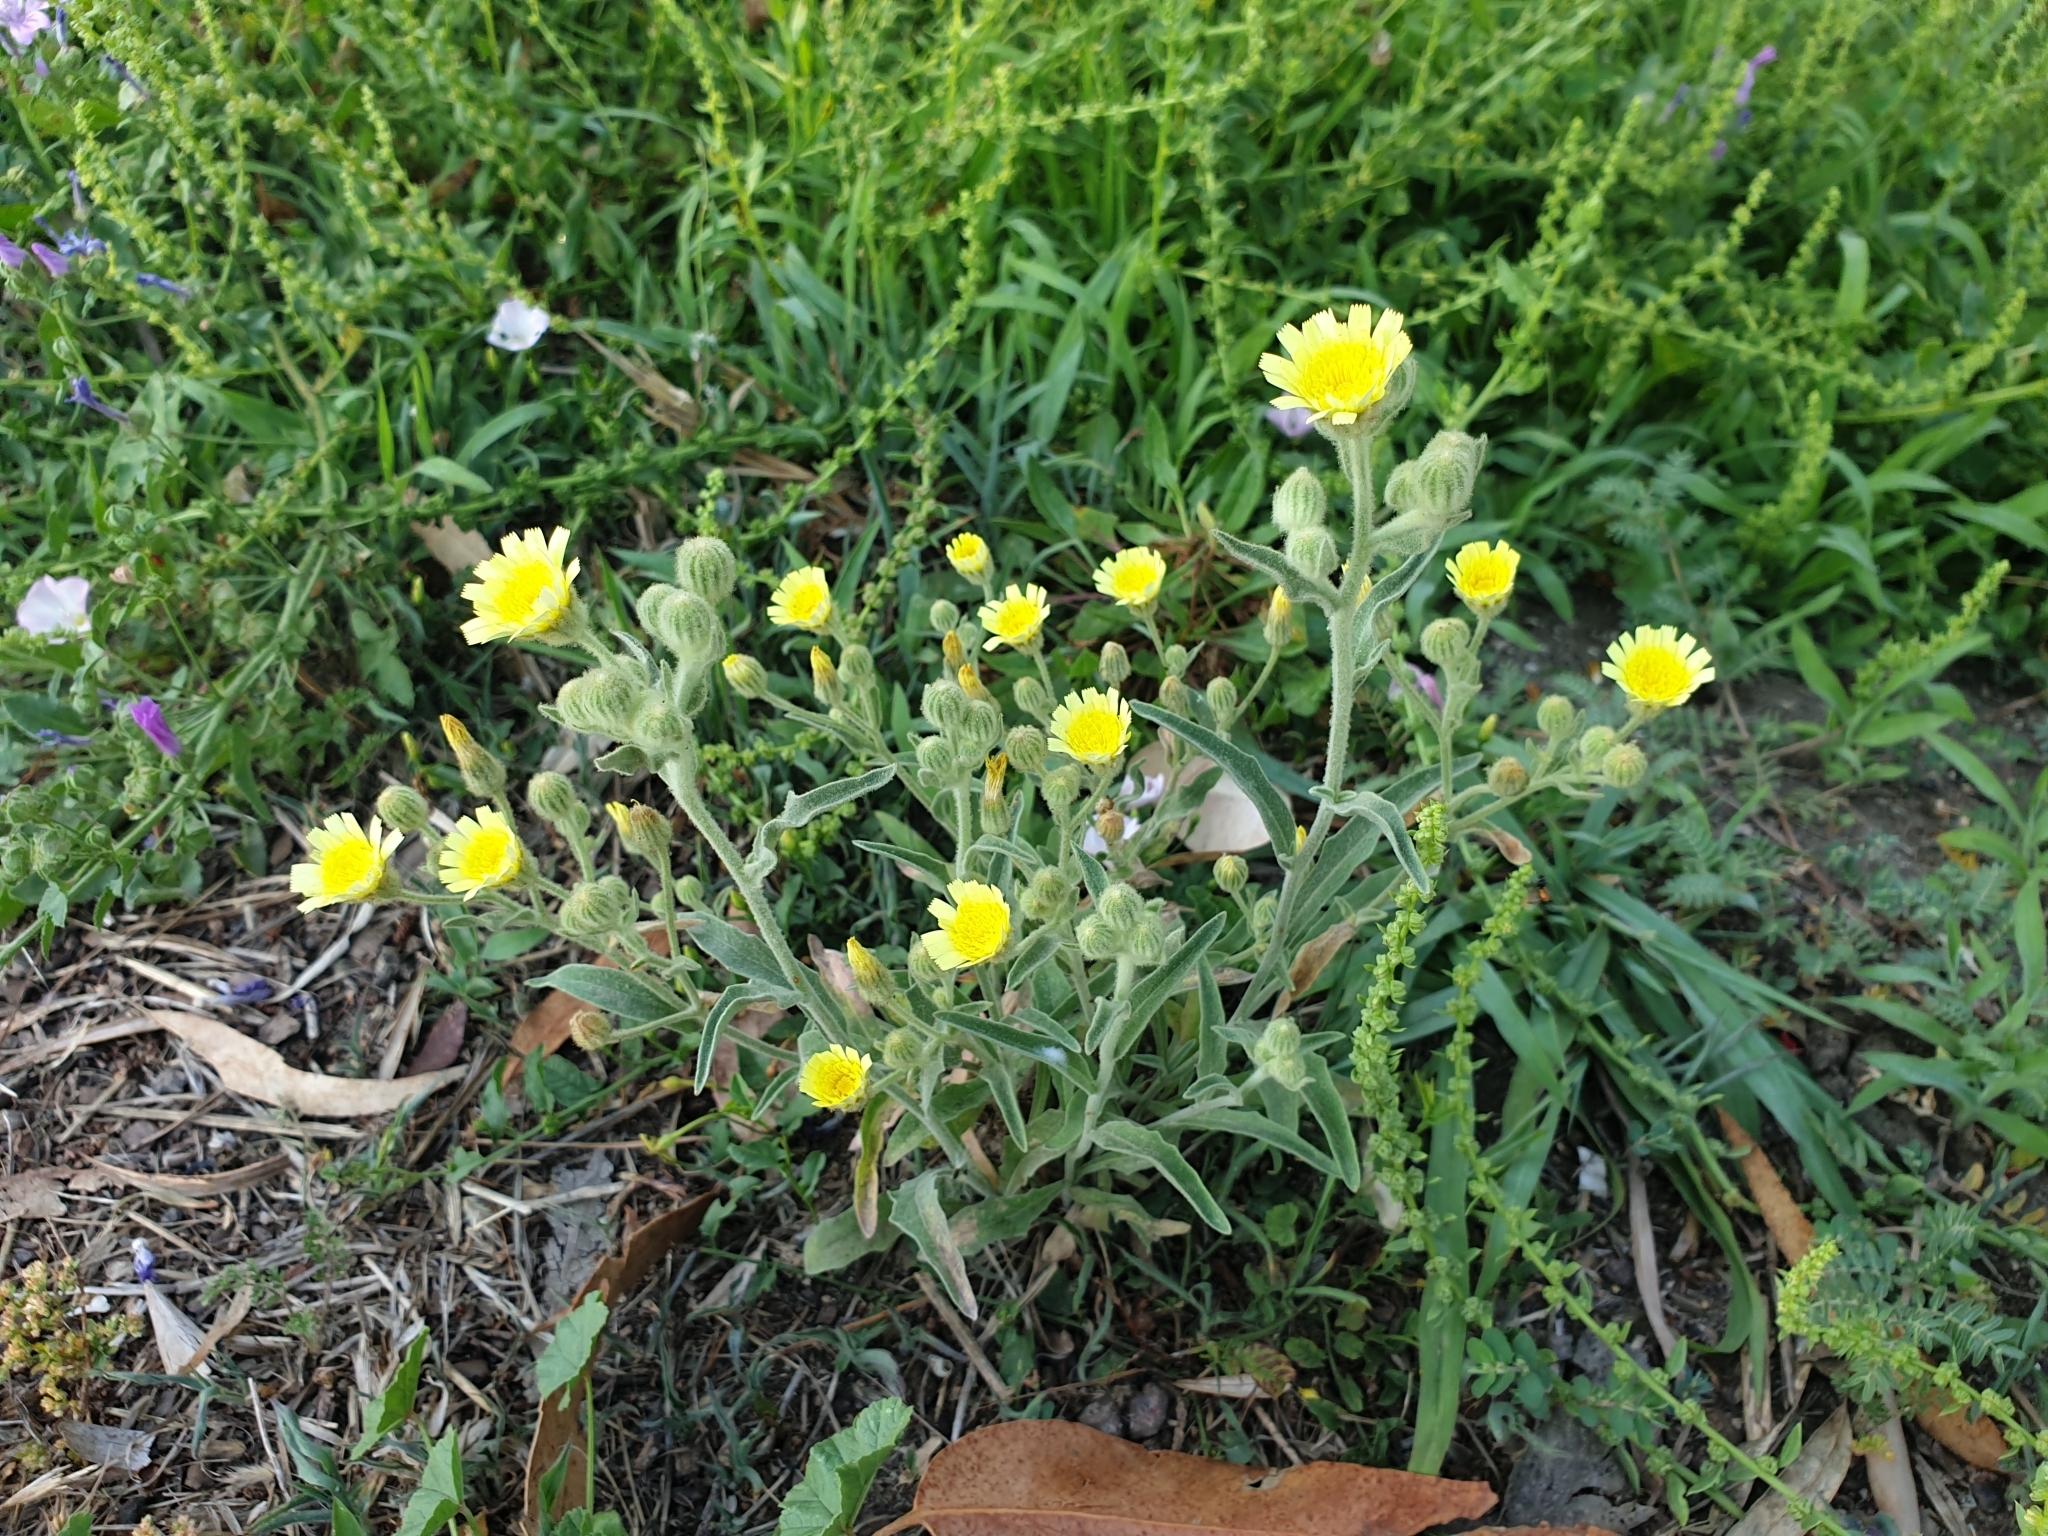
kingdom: Plantae
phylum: Tracheophyta
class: Magnoliopsida
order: Asterales
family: Asteraceae
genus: Andryala
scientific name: Andryala integrifolia
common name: Common andryala
